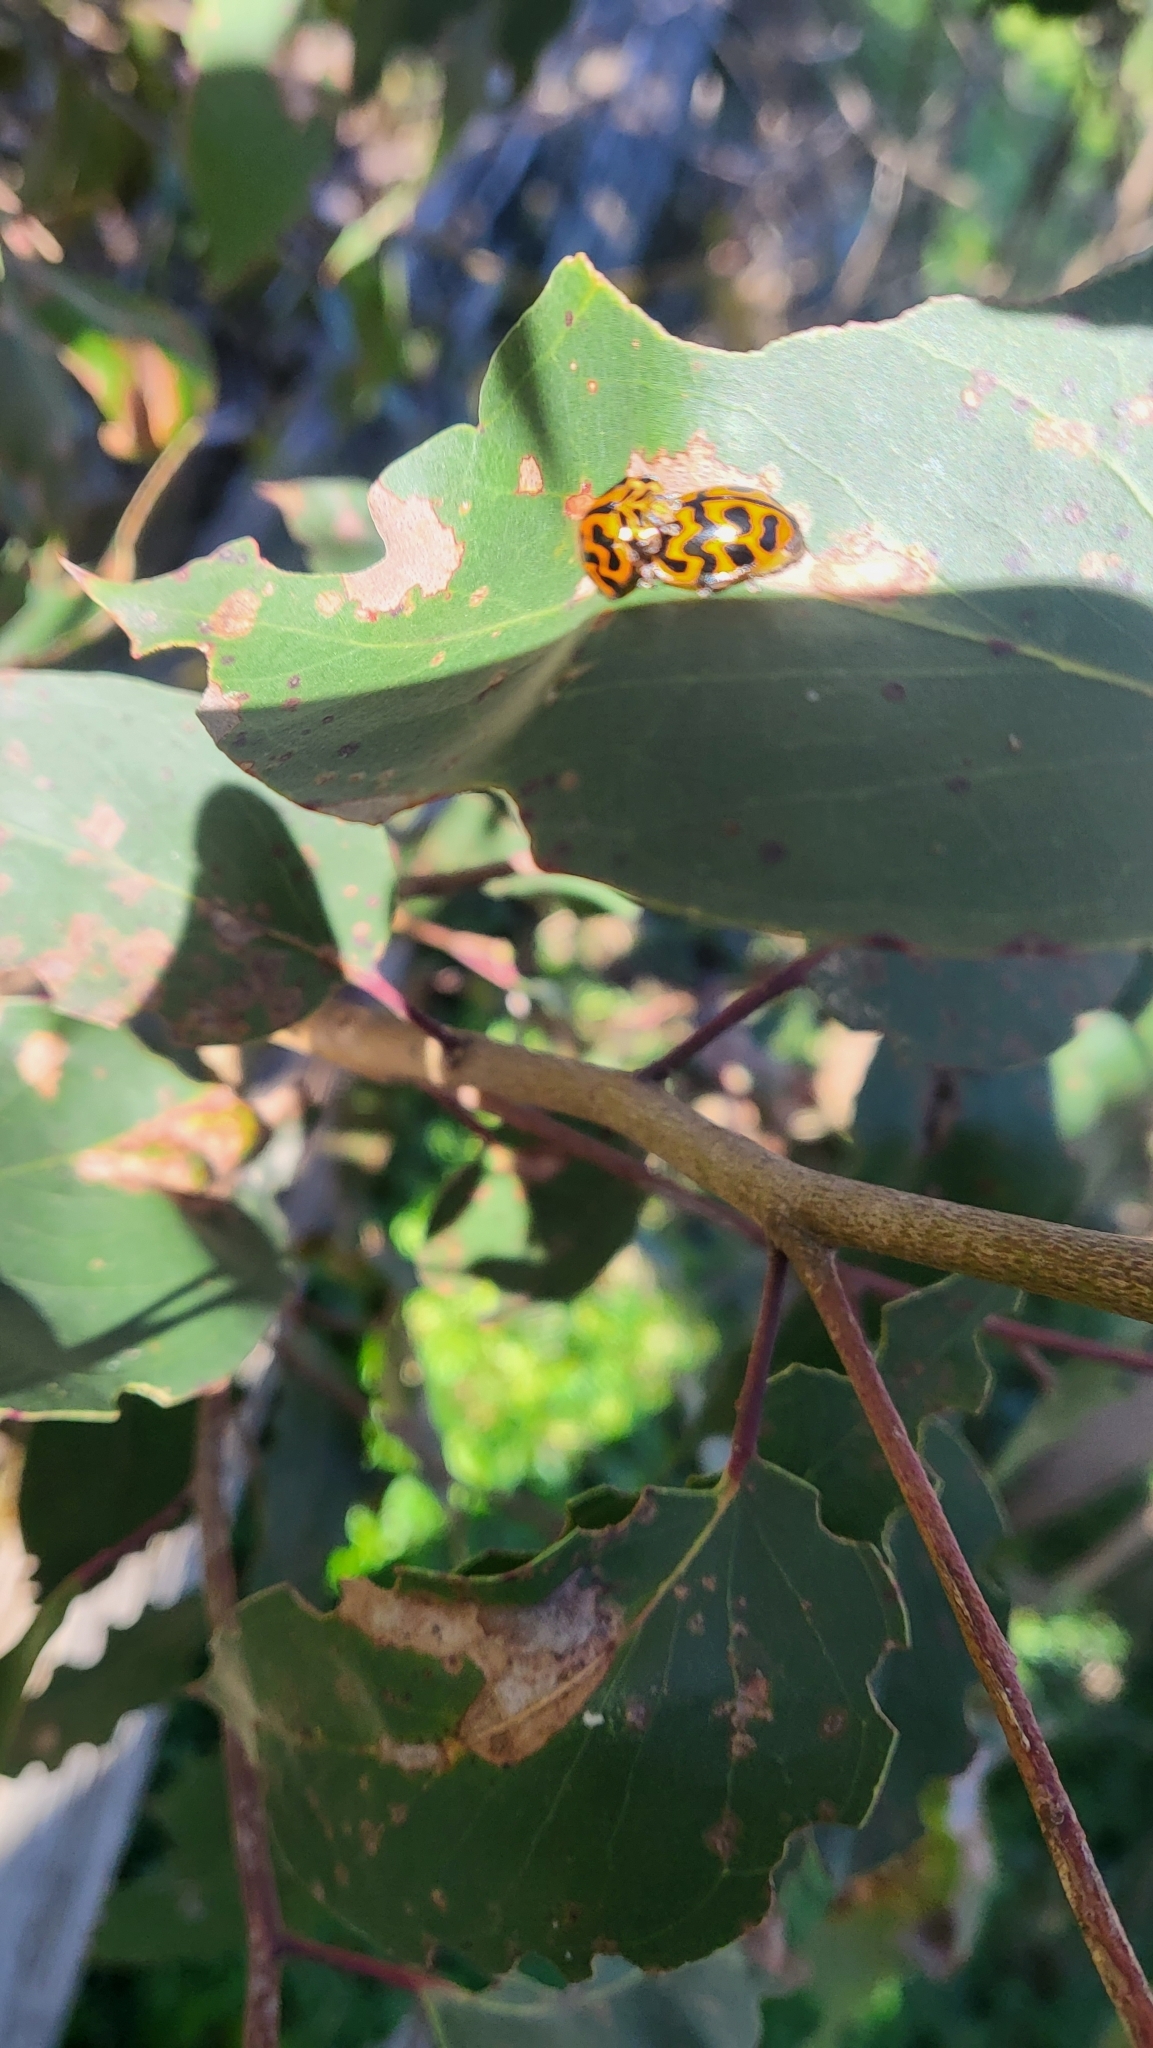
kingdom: Animalia
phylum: Arthropoda
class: Insecta
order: Coleoptera
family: Coccinellidae
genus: Cleobora
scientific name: Cleobora
